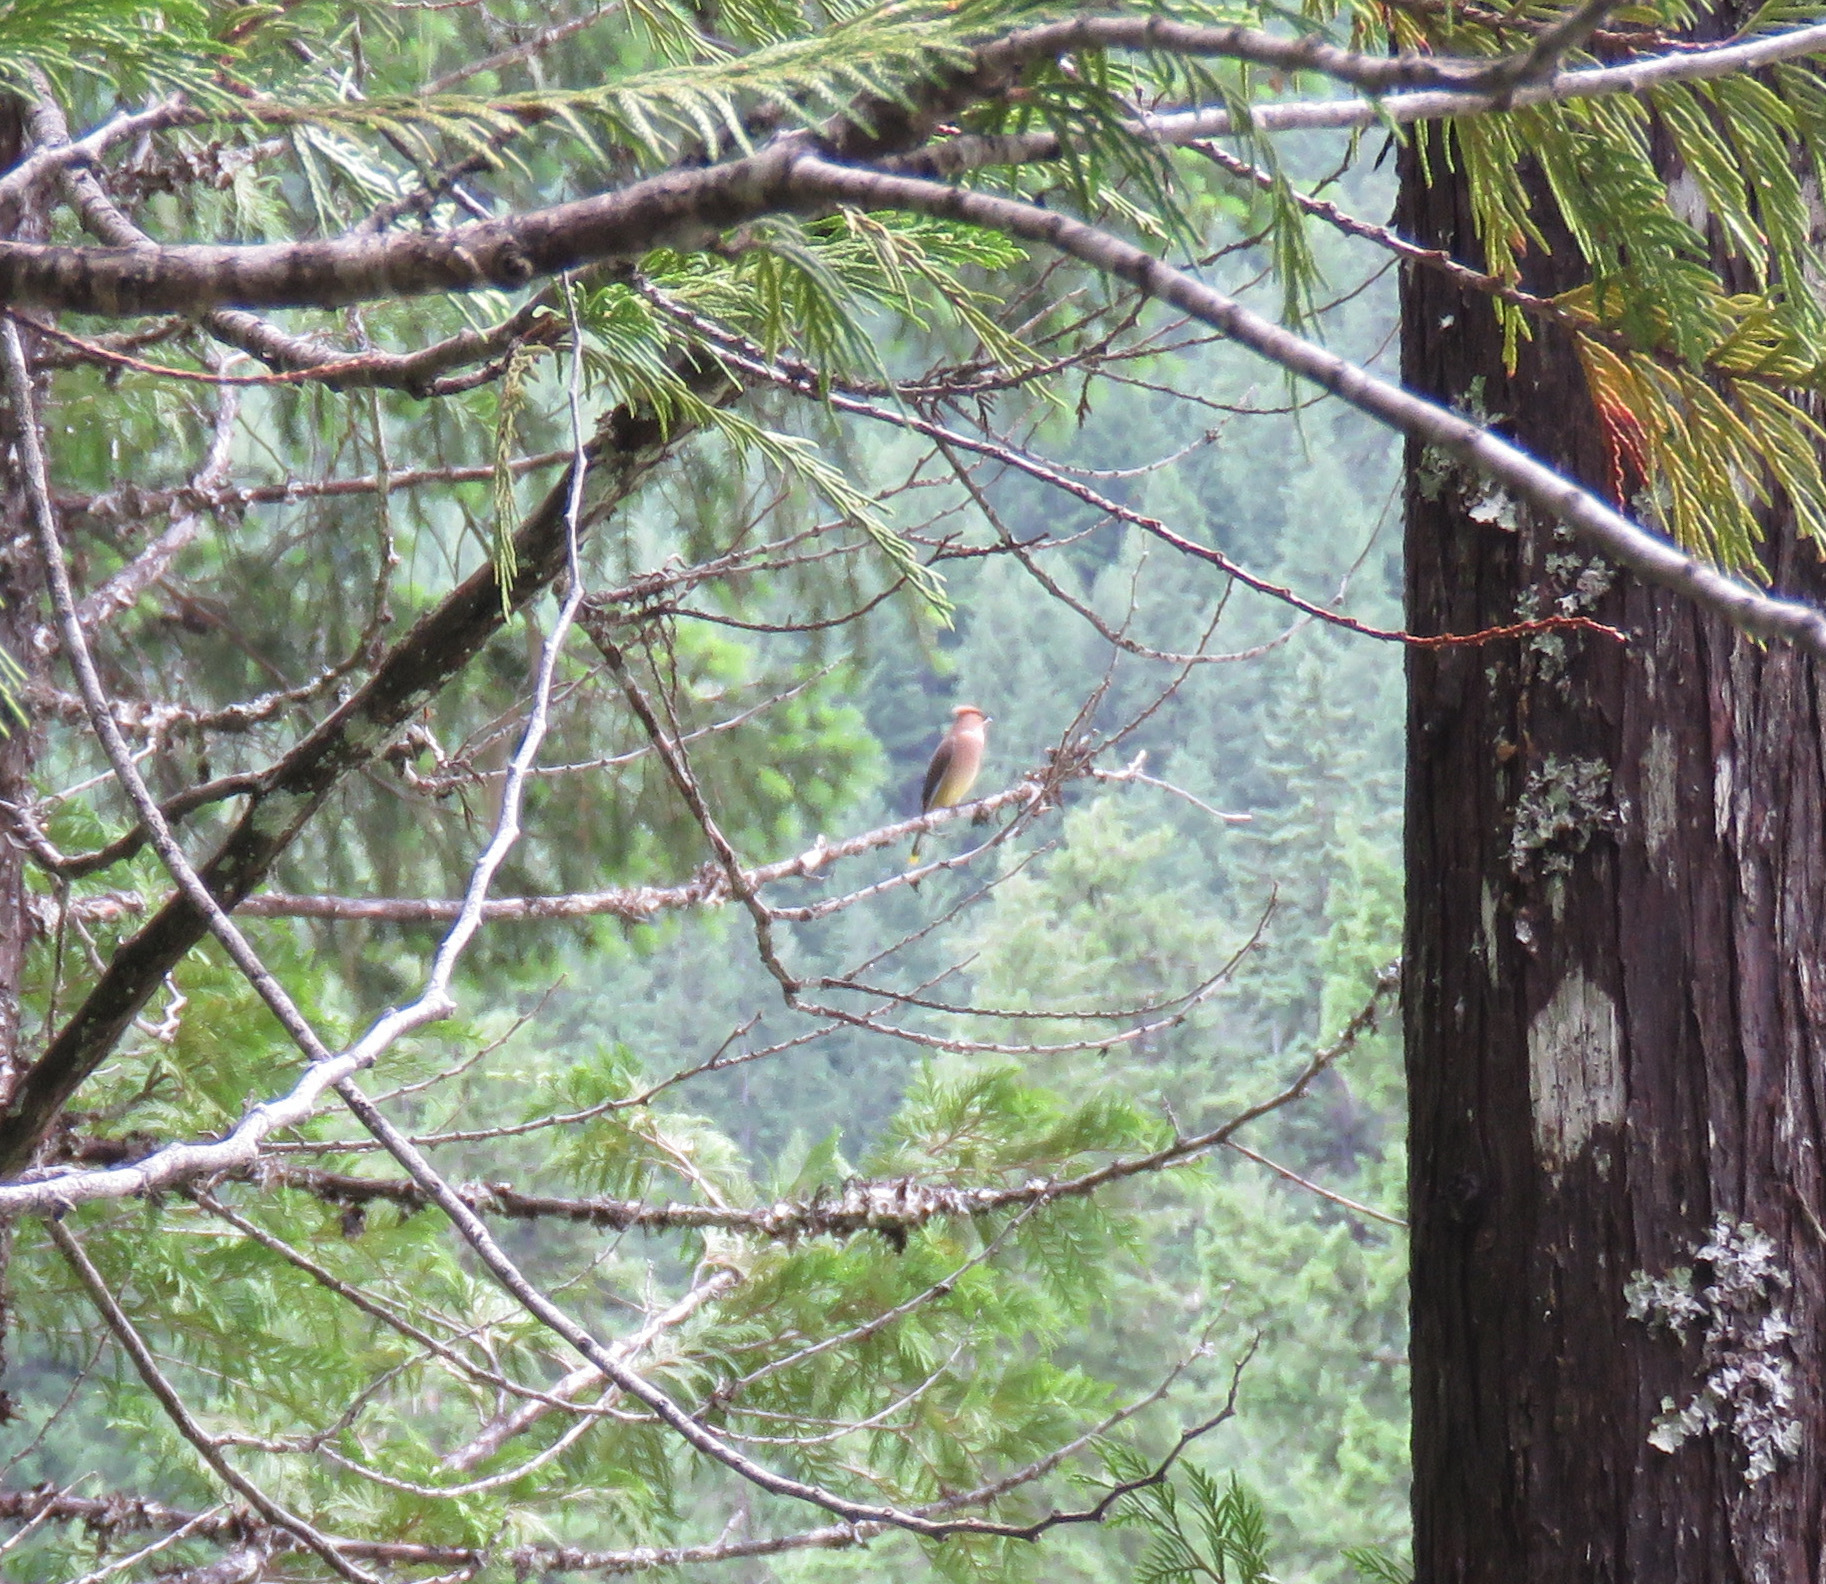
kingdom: Animalia
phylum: Chordata
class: Aves
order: Passeriformes
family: Bombycillidae
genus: Bombycilla
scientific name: Bombycilla cedrorum
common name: Cedar waxwing
